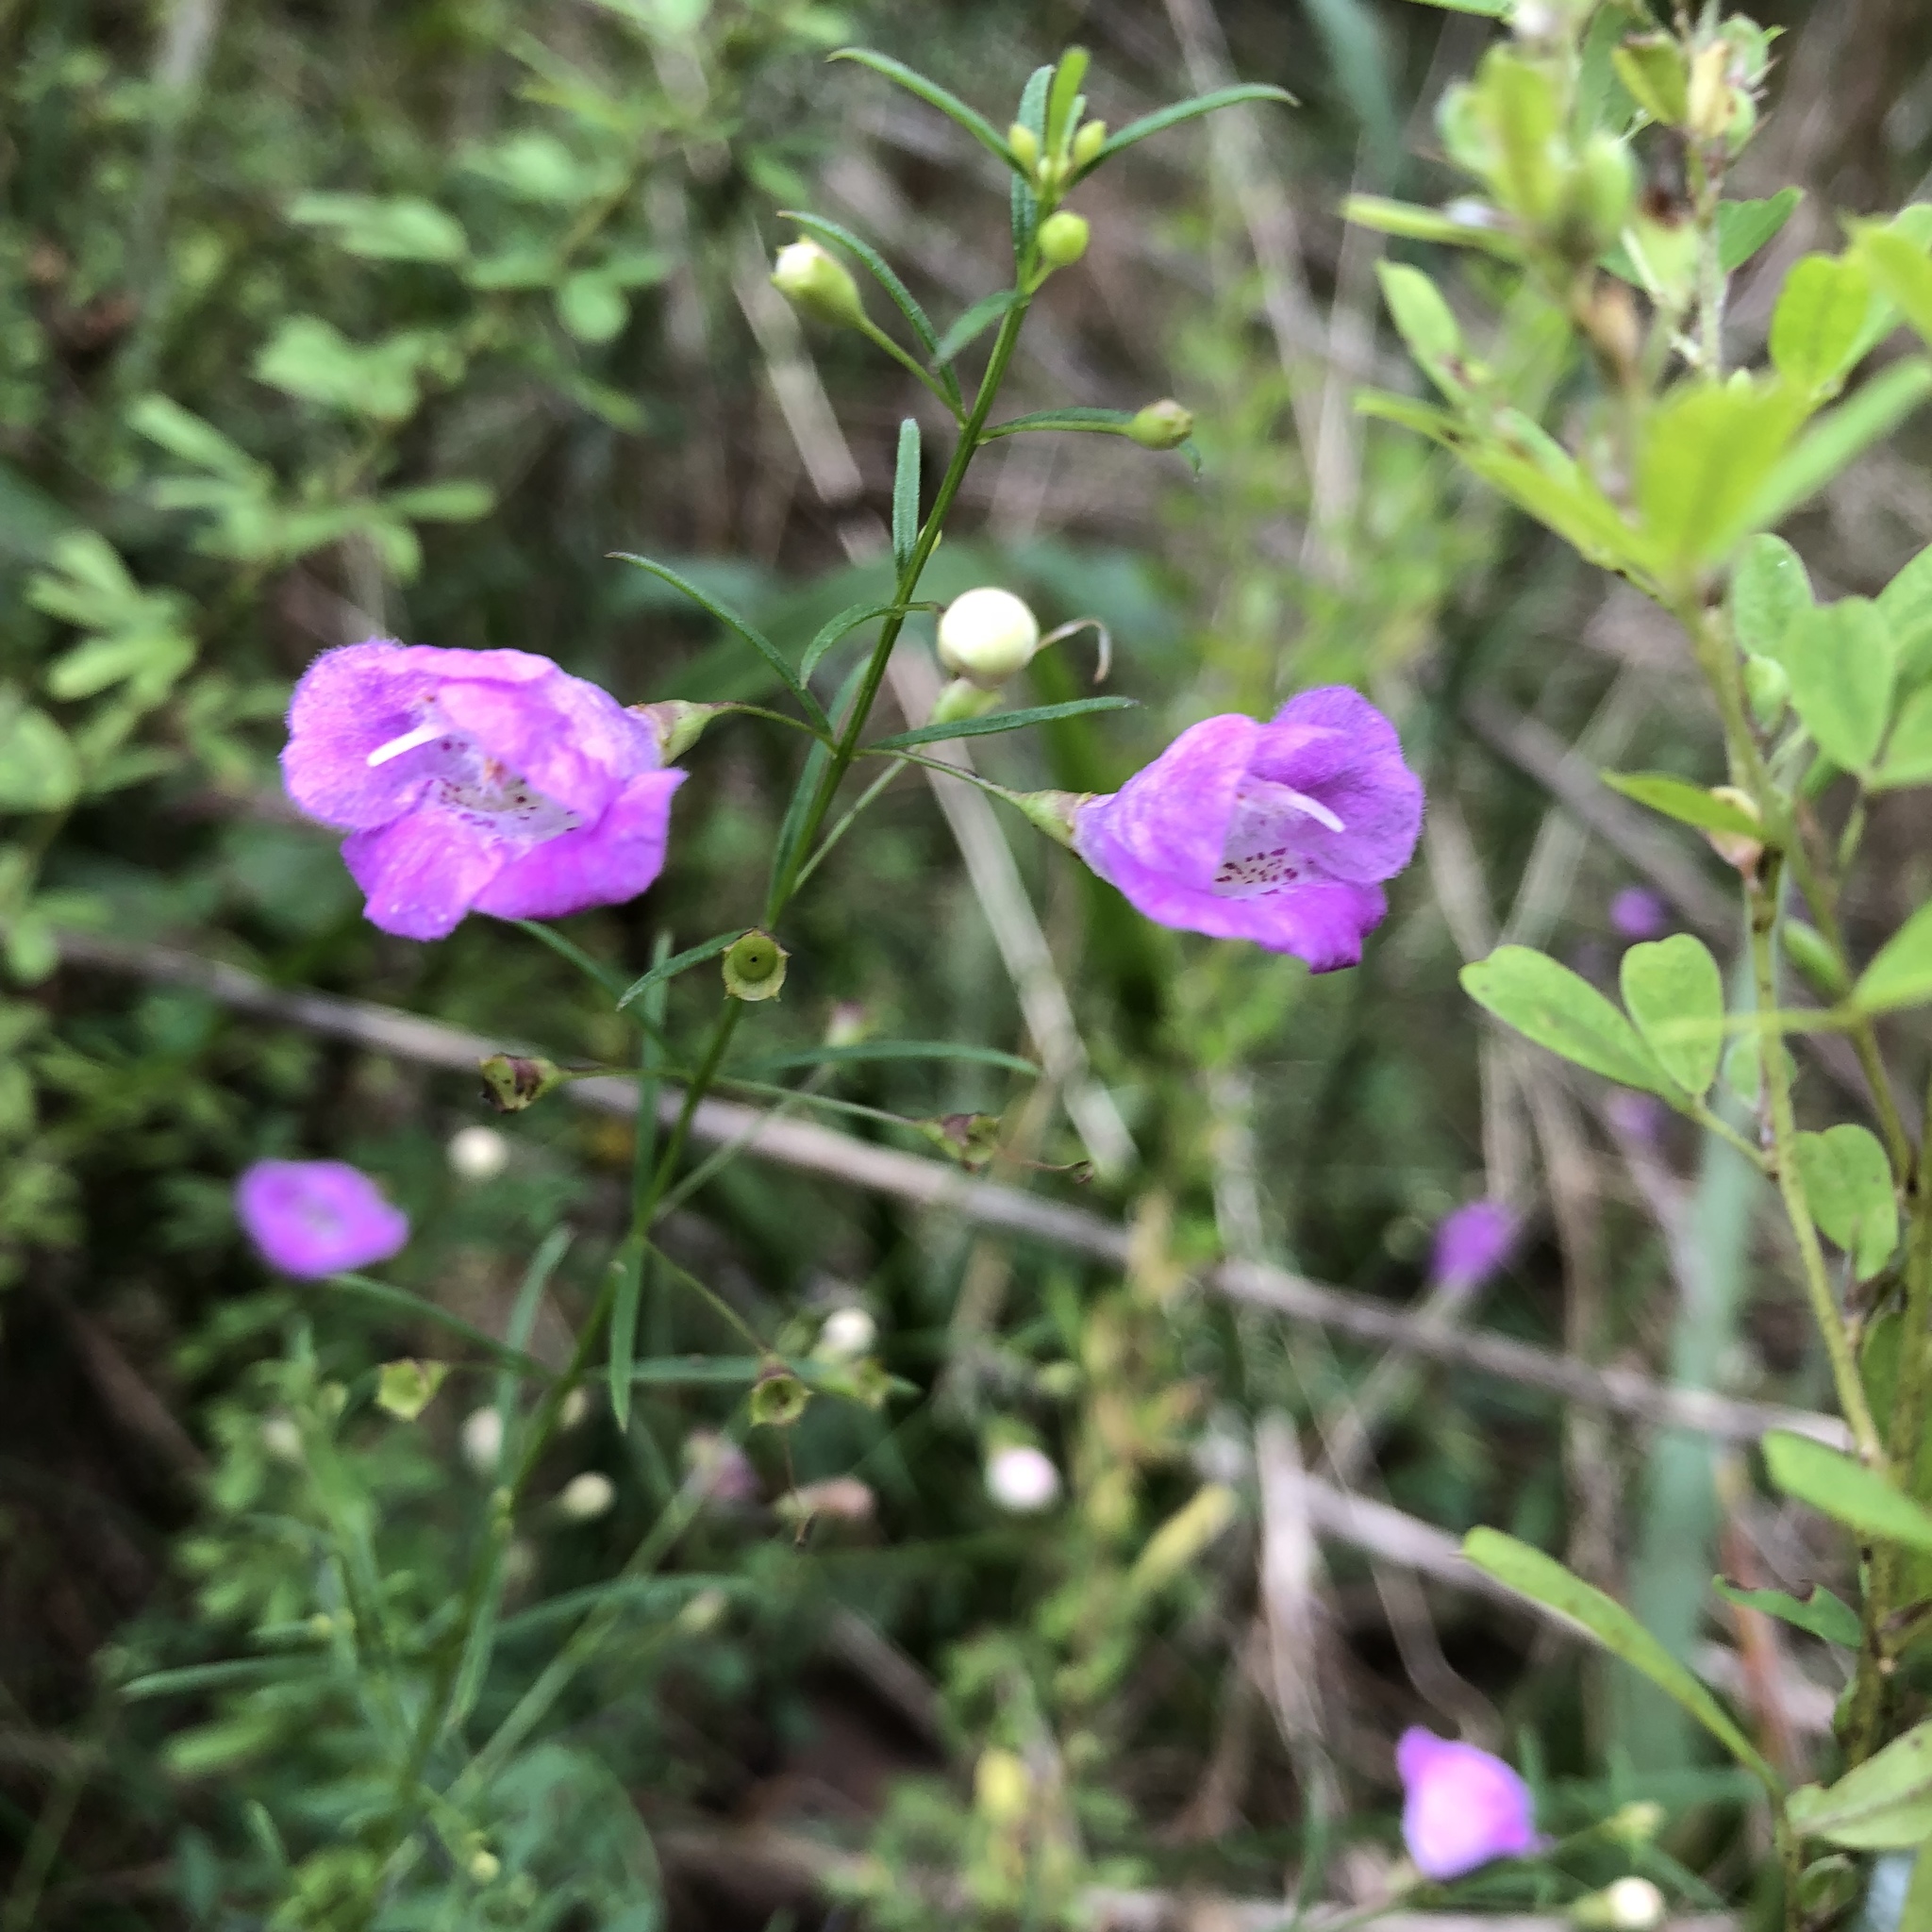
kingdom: Plantae
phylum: Tracheophyta
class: Magnoliopsida
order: Lamiales
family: Orobanchaceae
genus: Agalinis
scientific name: Agalinis tenuifolia
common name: Slender agalinis
